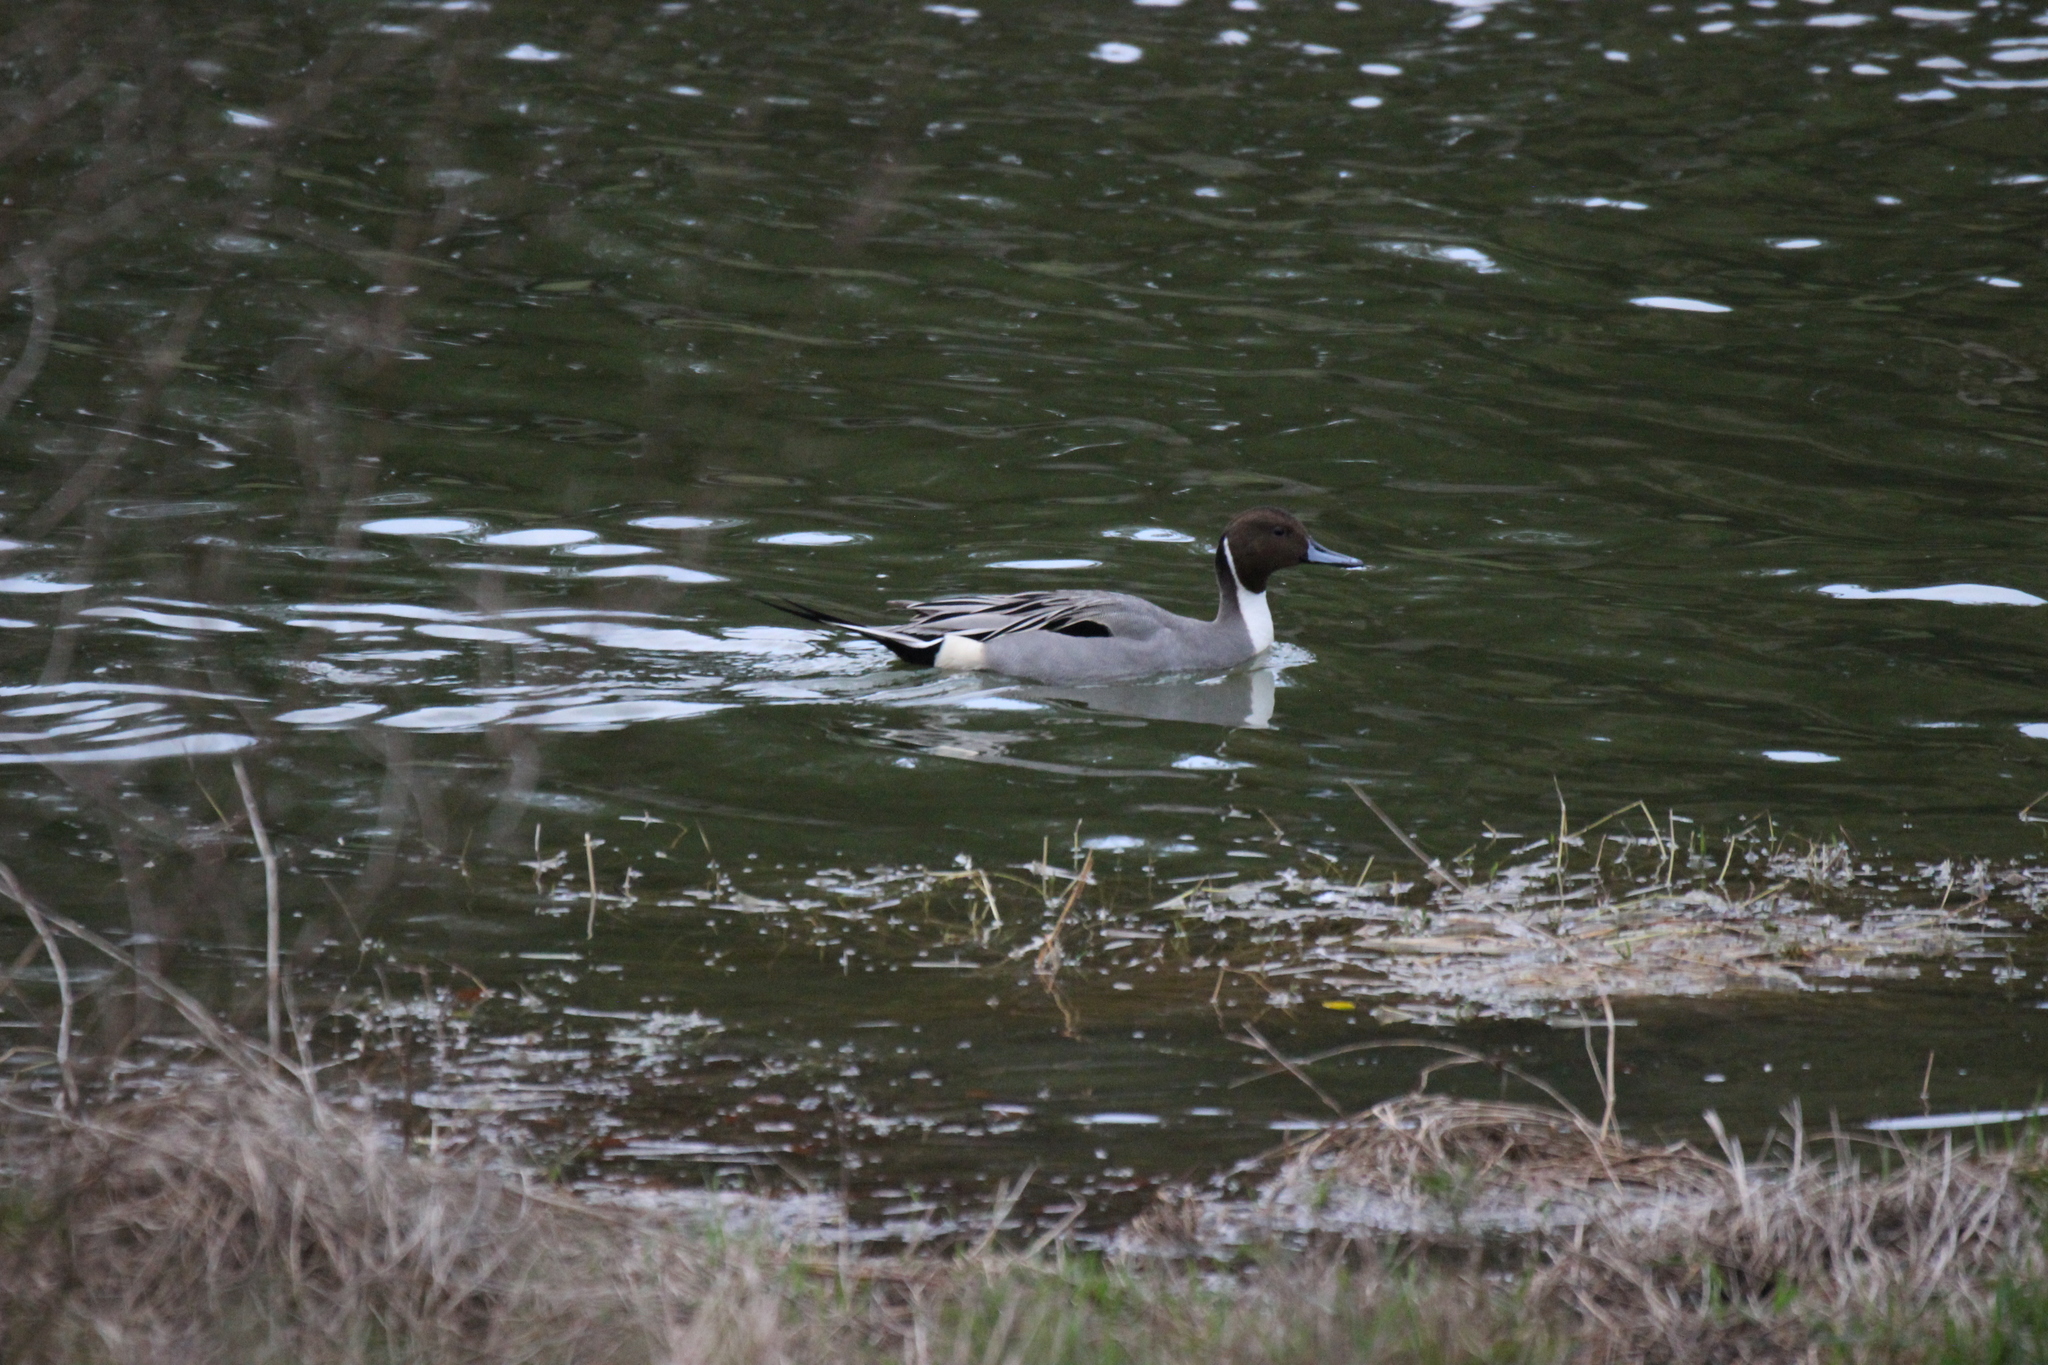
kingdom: Animalia
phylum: Chordata
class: Aves
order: Anseriformes
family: Anatidae
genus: Anas
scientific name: Anas acuta
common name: Northern pintail
